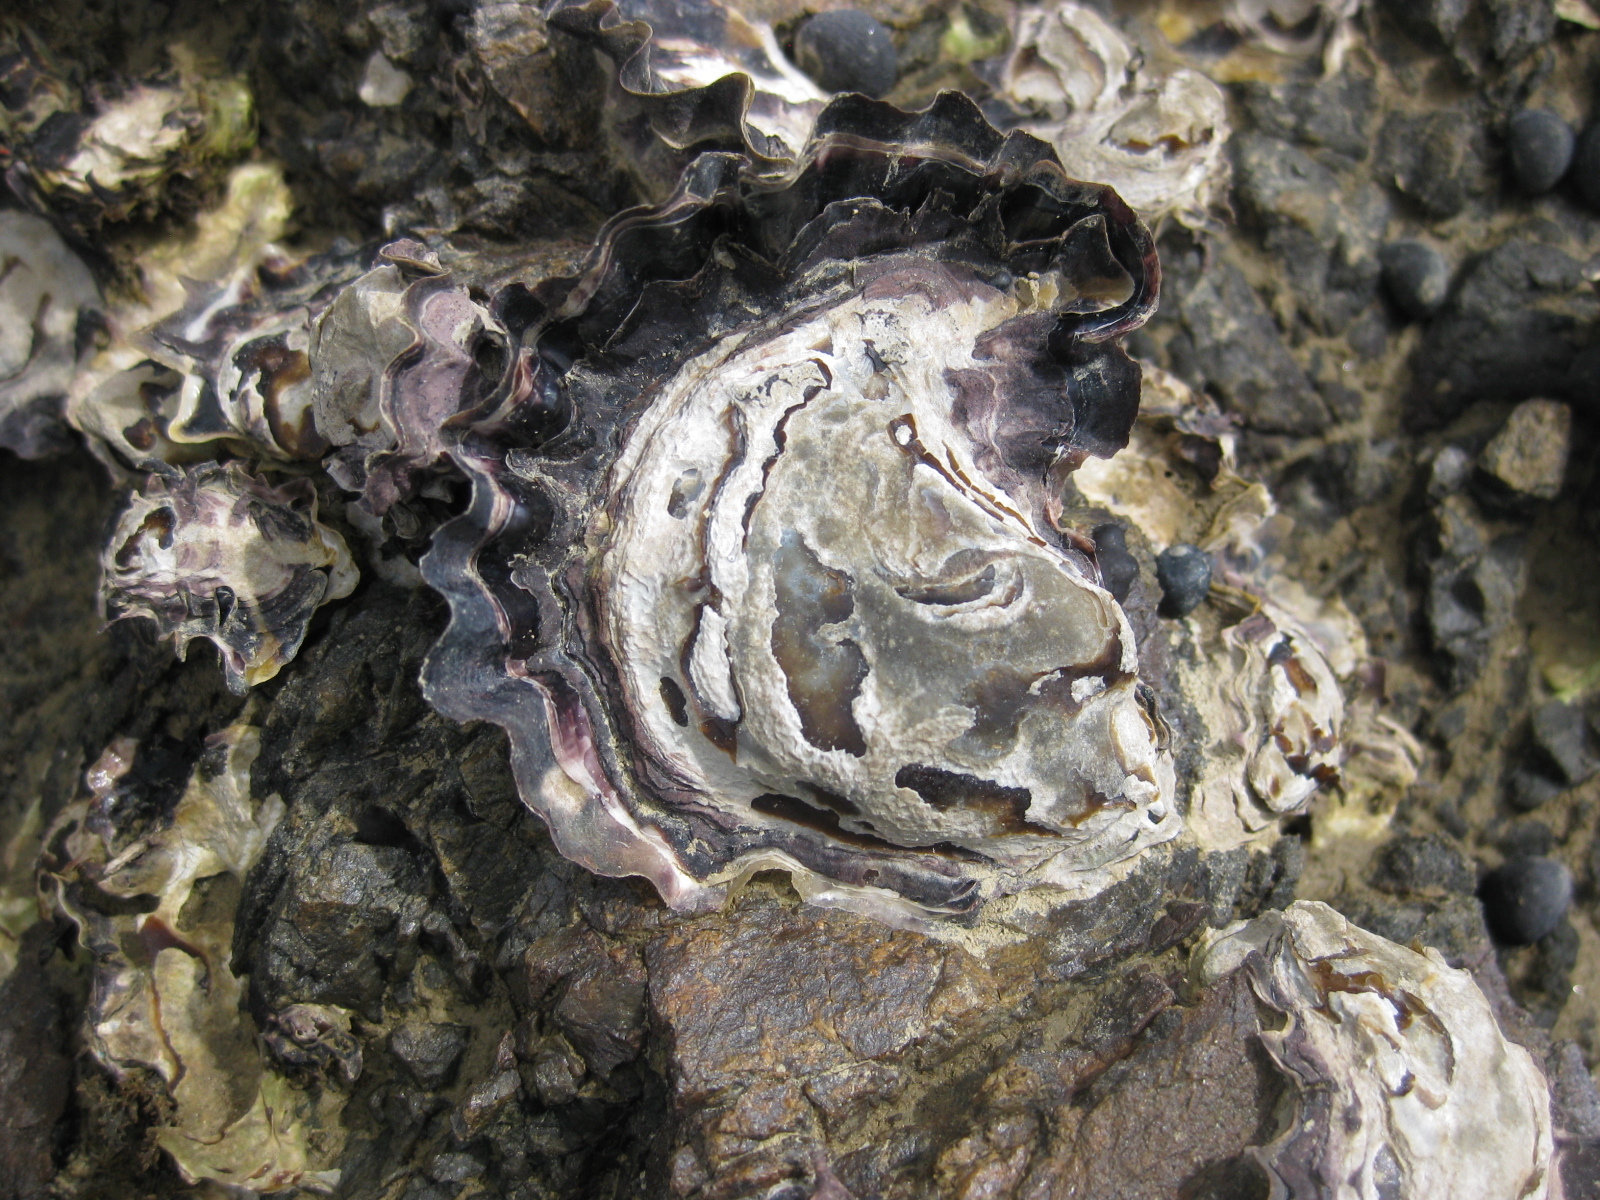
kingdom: Animalia
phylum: Mollusca
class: Bivalvia
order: Ostreida
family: Ostreidae
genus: Saccostrea
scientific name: Saccostrea glomerata
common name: Sydney cupped oyster
